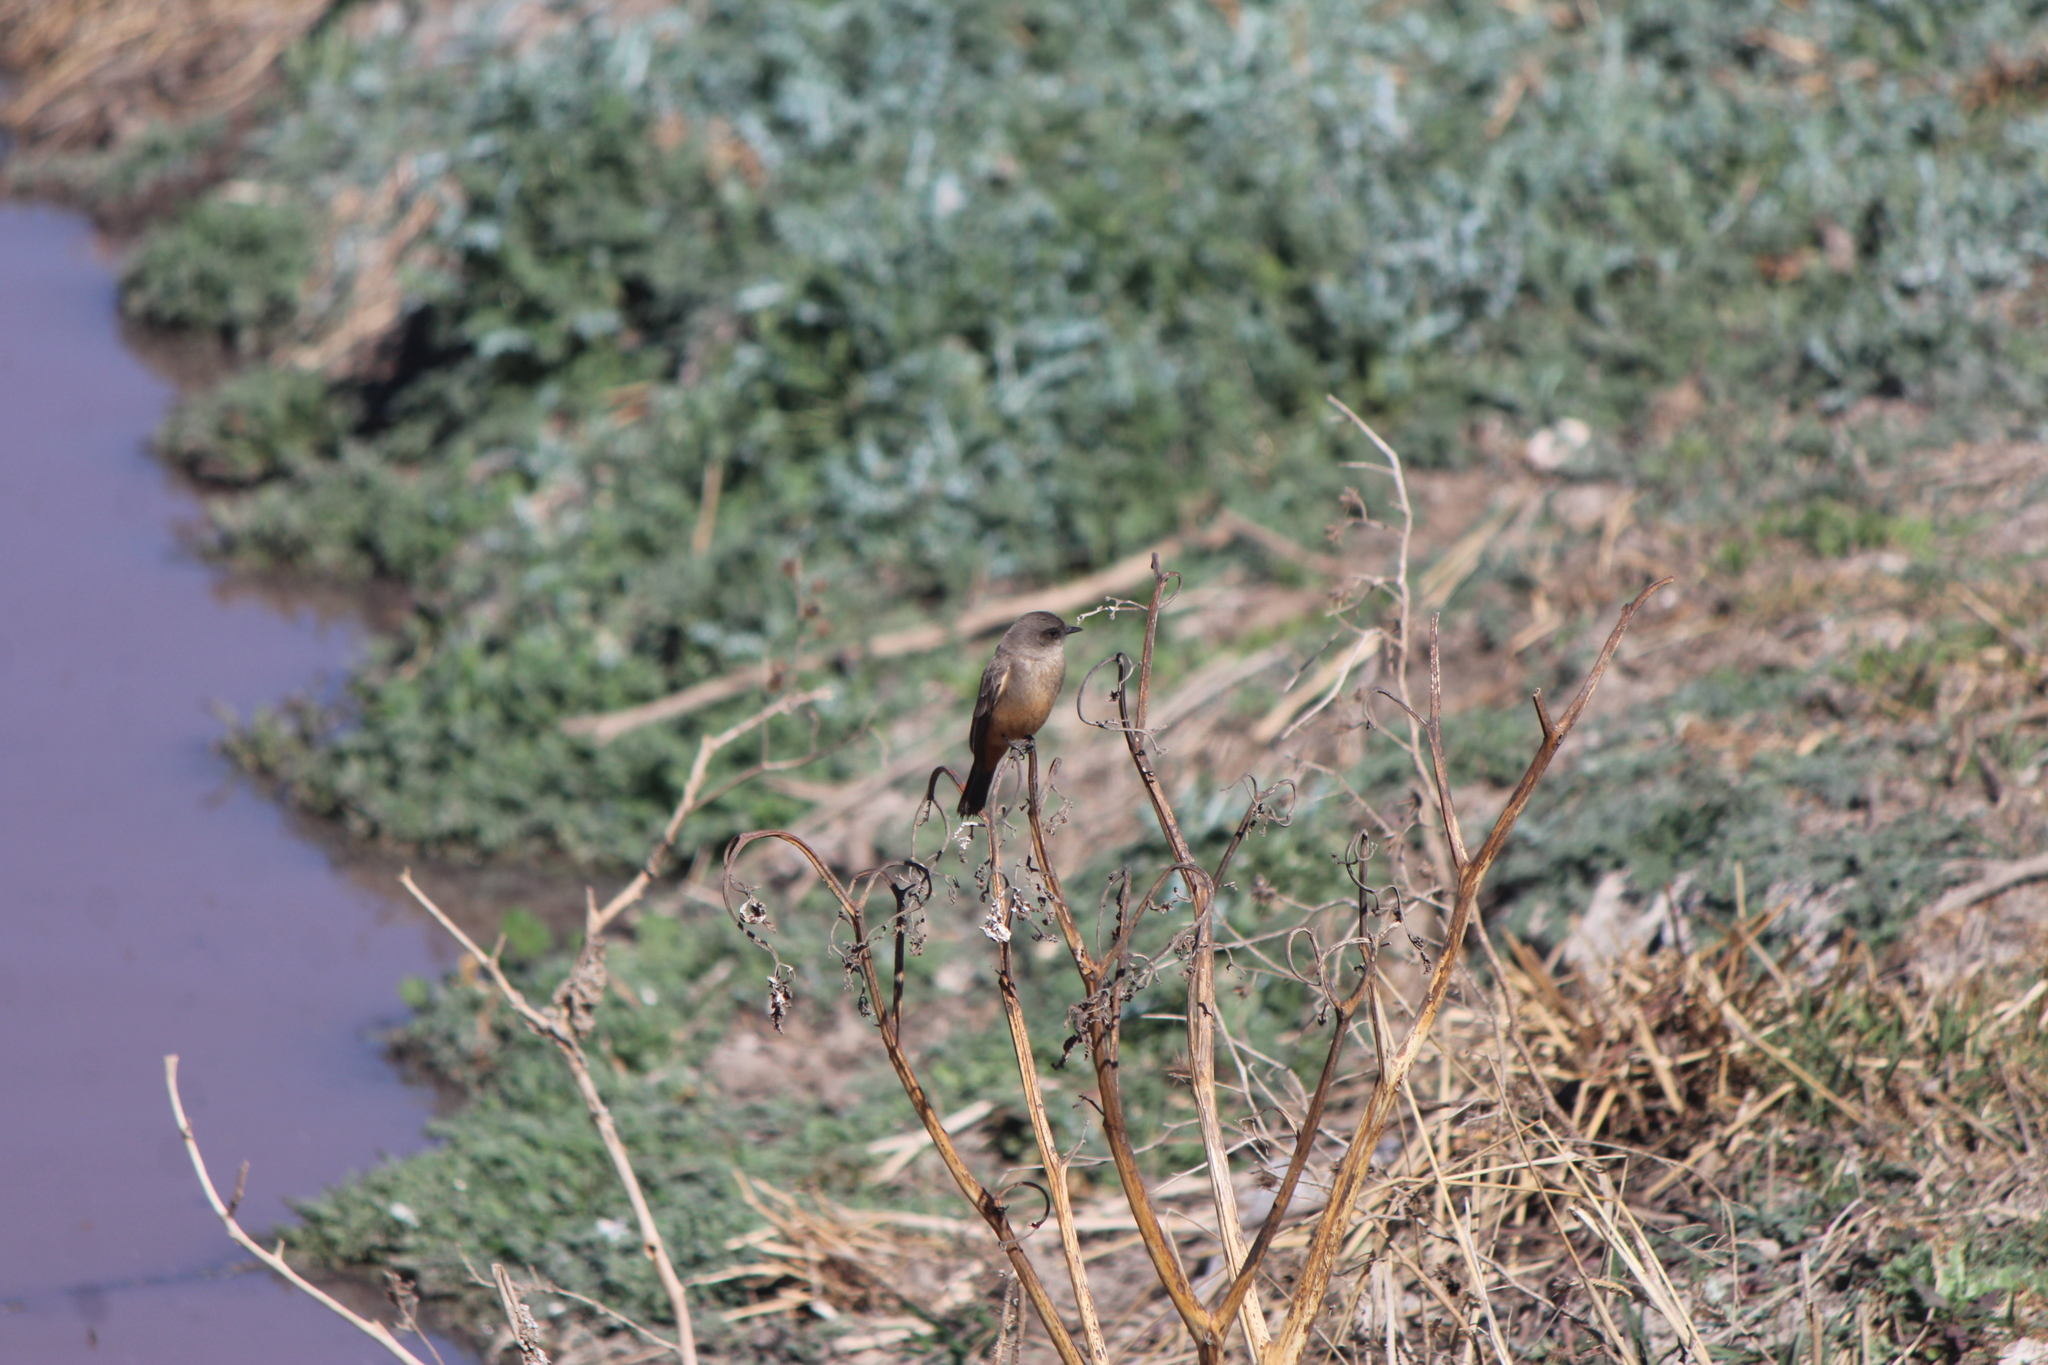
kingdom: Animalia
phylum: Chordata
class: Aves
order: Passeriformes
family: Tyrannidae
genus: Sayornis
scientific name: Sayornis saya
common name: Say's phoebe
